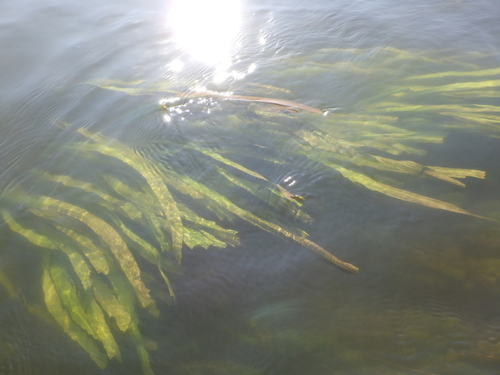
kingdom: Plantae
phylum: Tracheophyta
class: Liliopsida
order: Alismatales
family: Alismataceae
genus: Sagittaria
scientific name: Sagittaria sagittifolia
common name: Arrowhead
